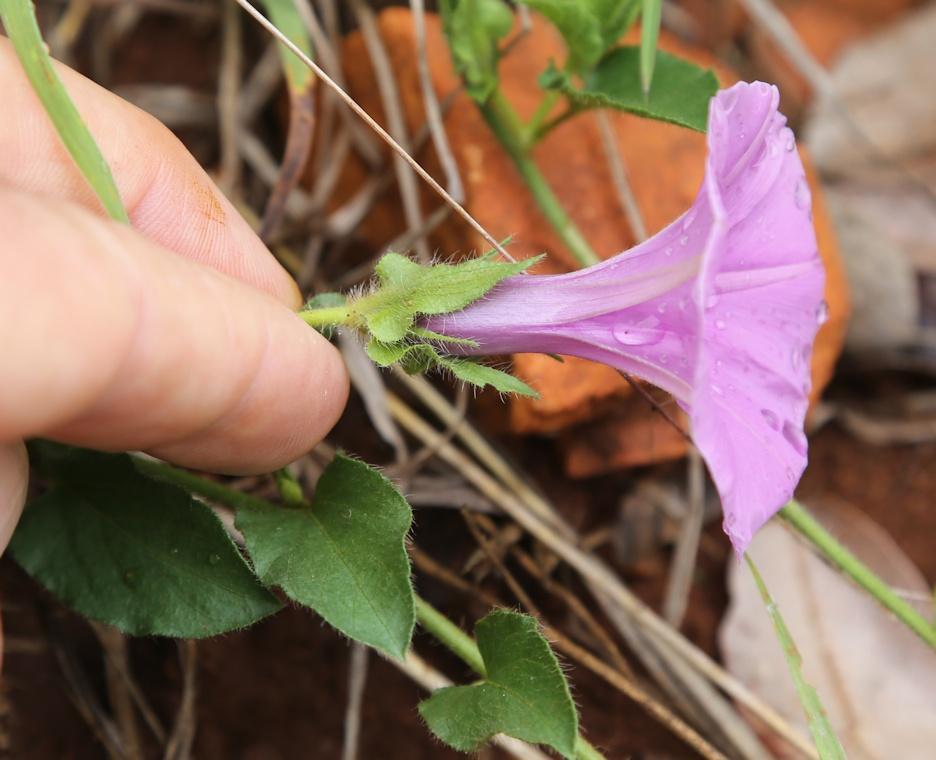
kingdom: Plantae
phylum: Tracheophyta
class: Magnoliopsida
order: Solanales
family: Convolvulaceae
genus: Ipomoea
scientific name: Ipomoea crassipes
